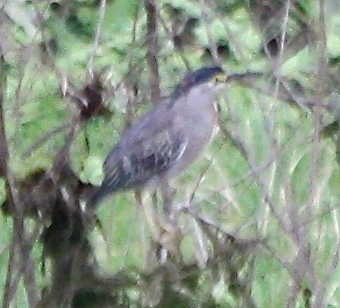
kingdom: Animalia
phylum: Chordata
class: Aves
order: Pelecaniformes
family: Ardeidae
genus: Butorides
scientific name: Butorides striata
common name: Striated heron
